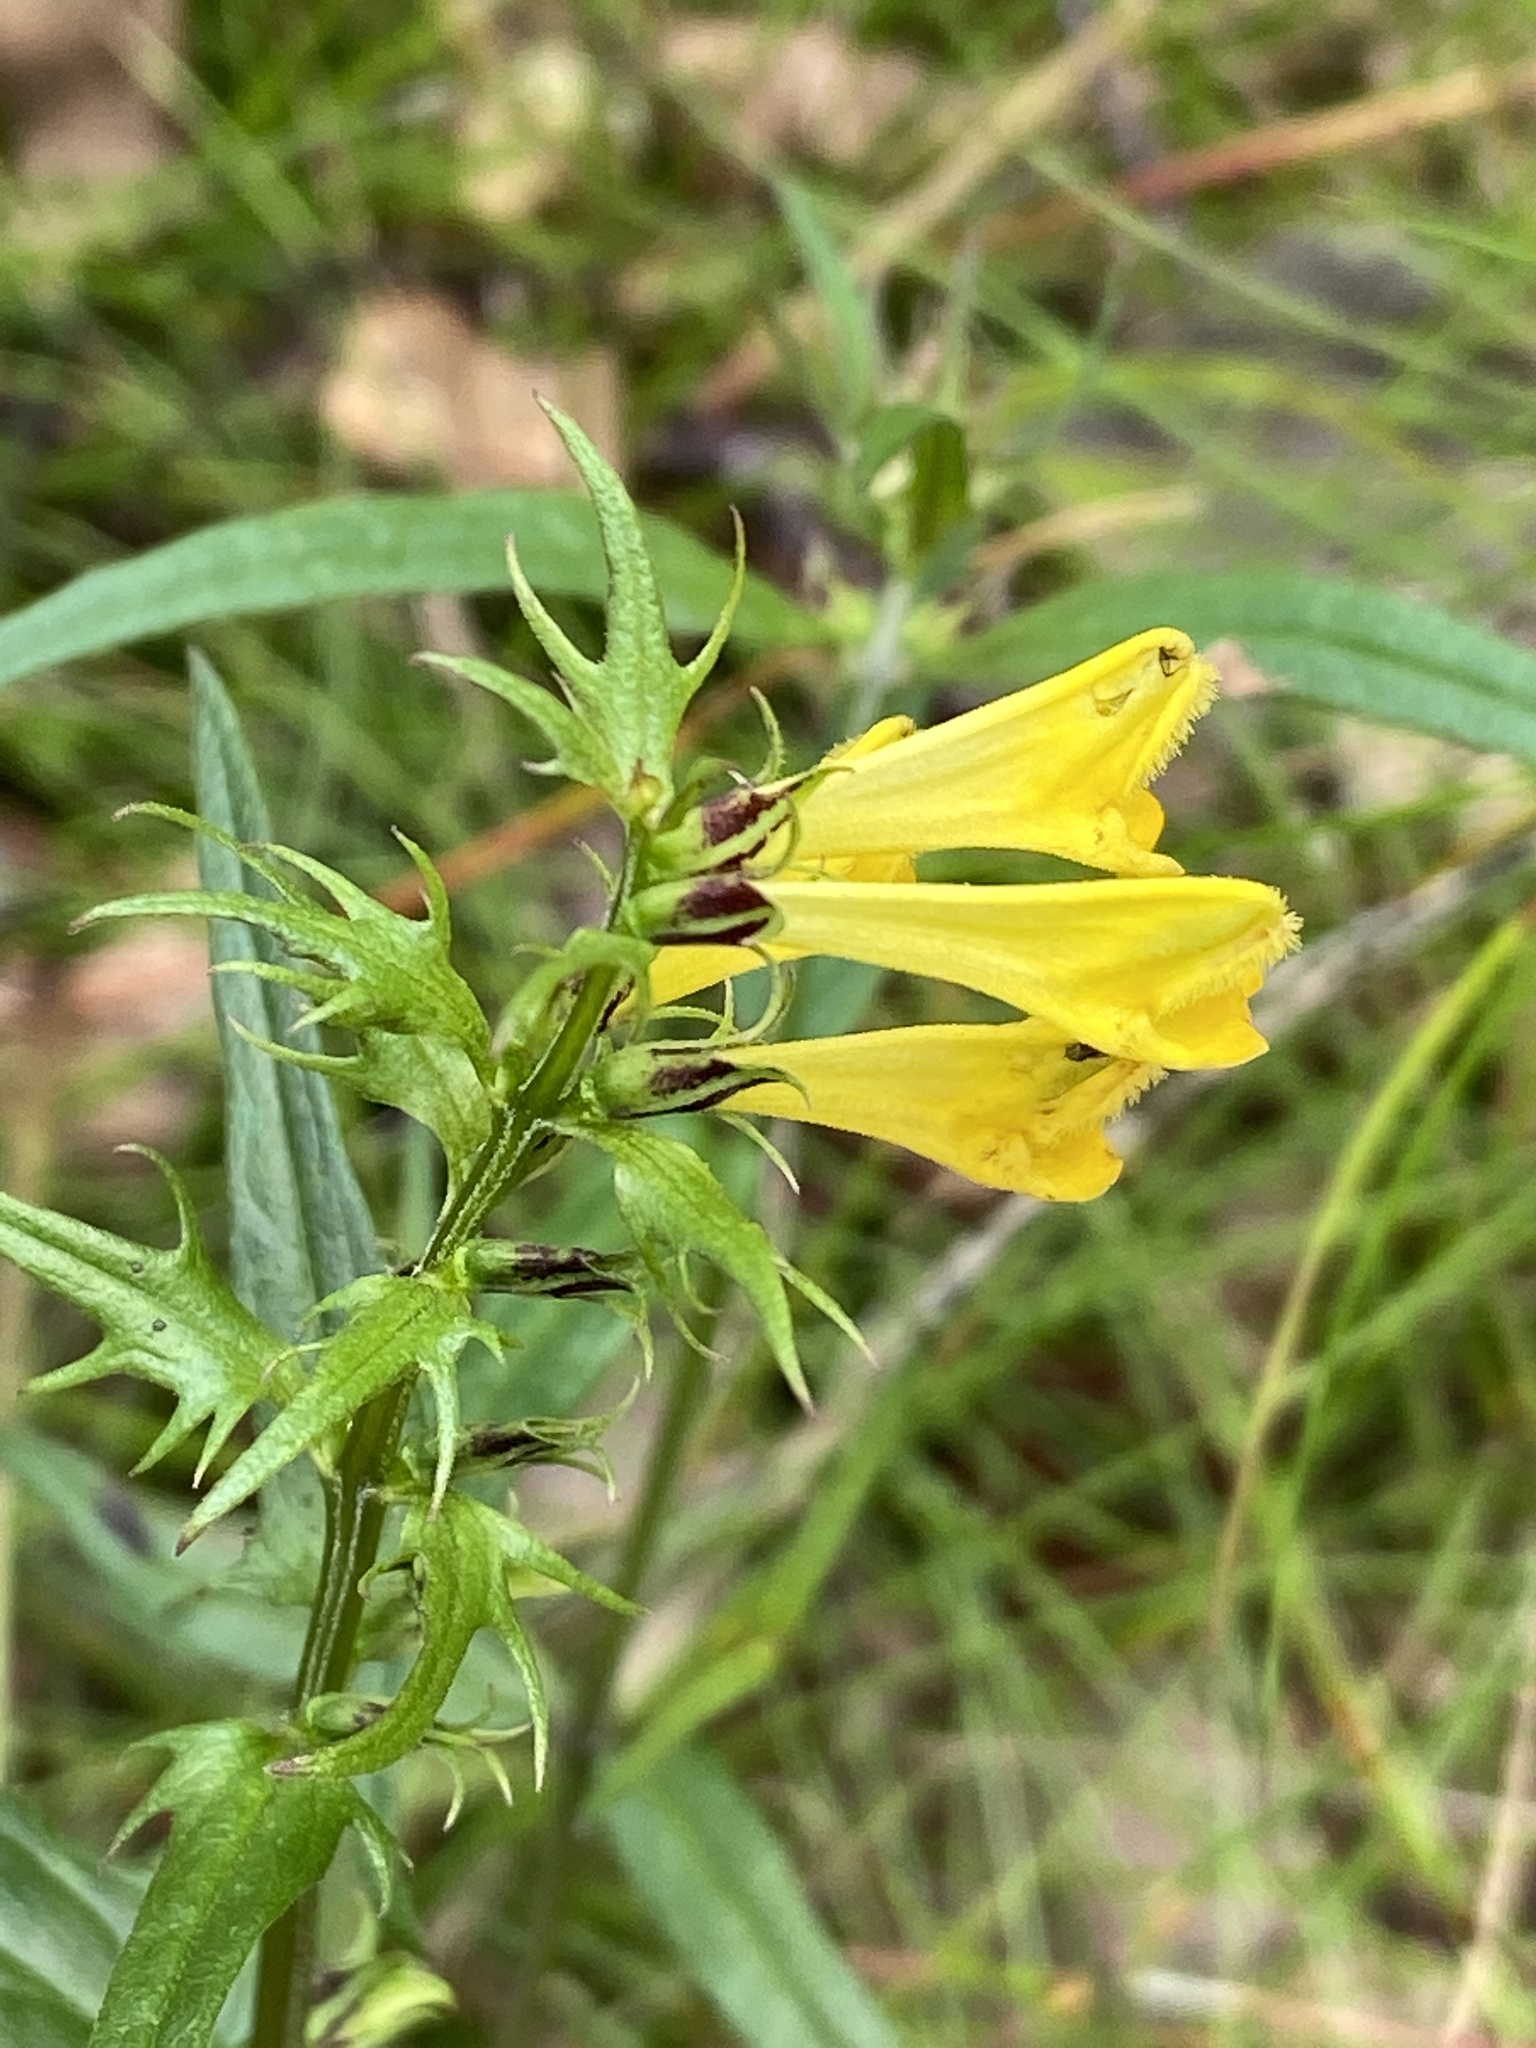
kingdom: Plantae
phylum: Tracheophyta
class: Magnoliopsida
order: Lamiales
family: Orobanchaceae
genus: Melampyrum
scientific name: Melampyrum pratense
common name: Common cow-wheat
